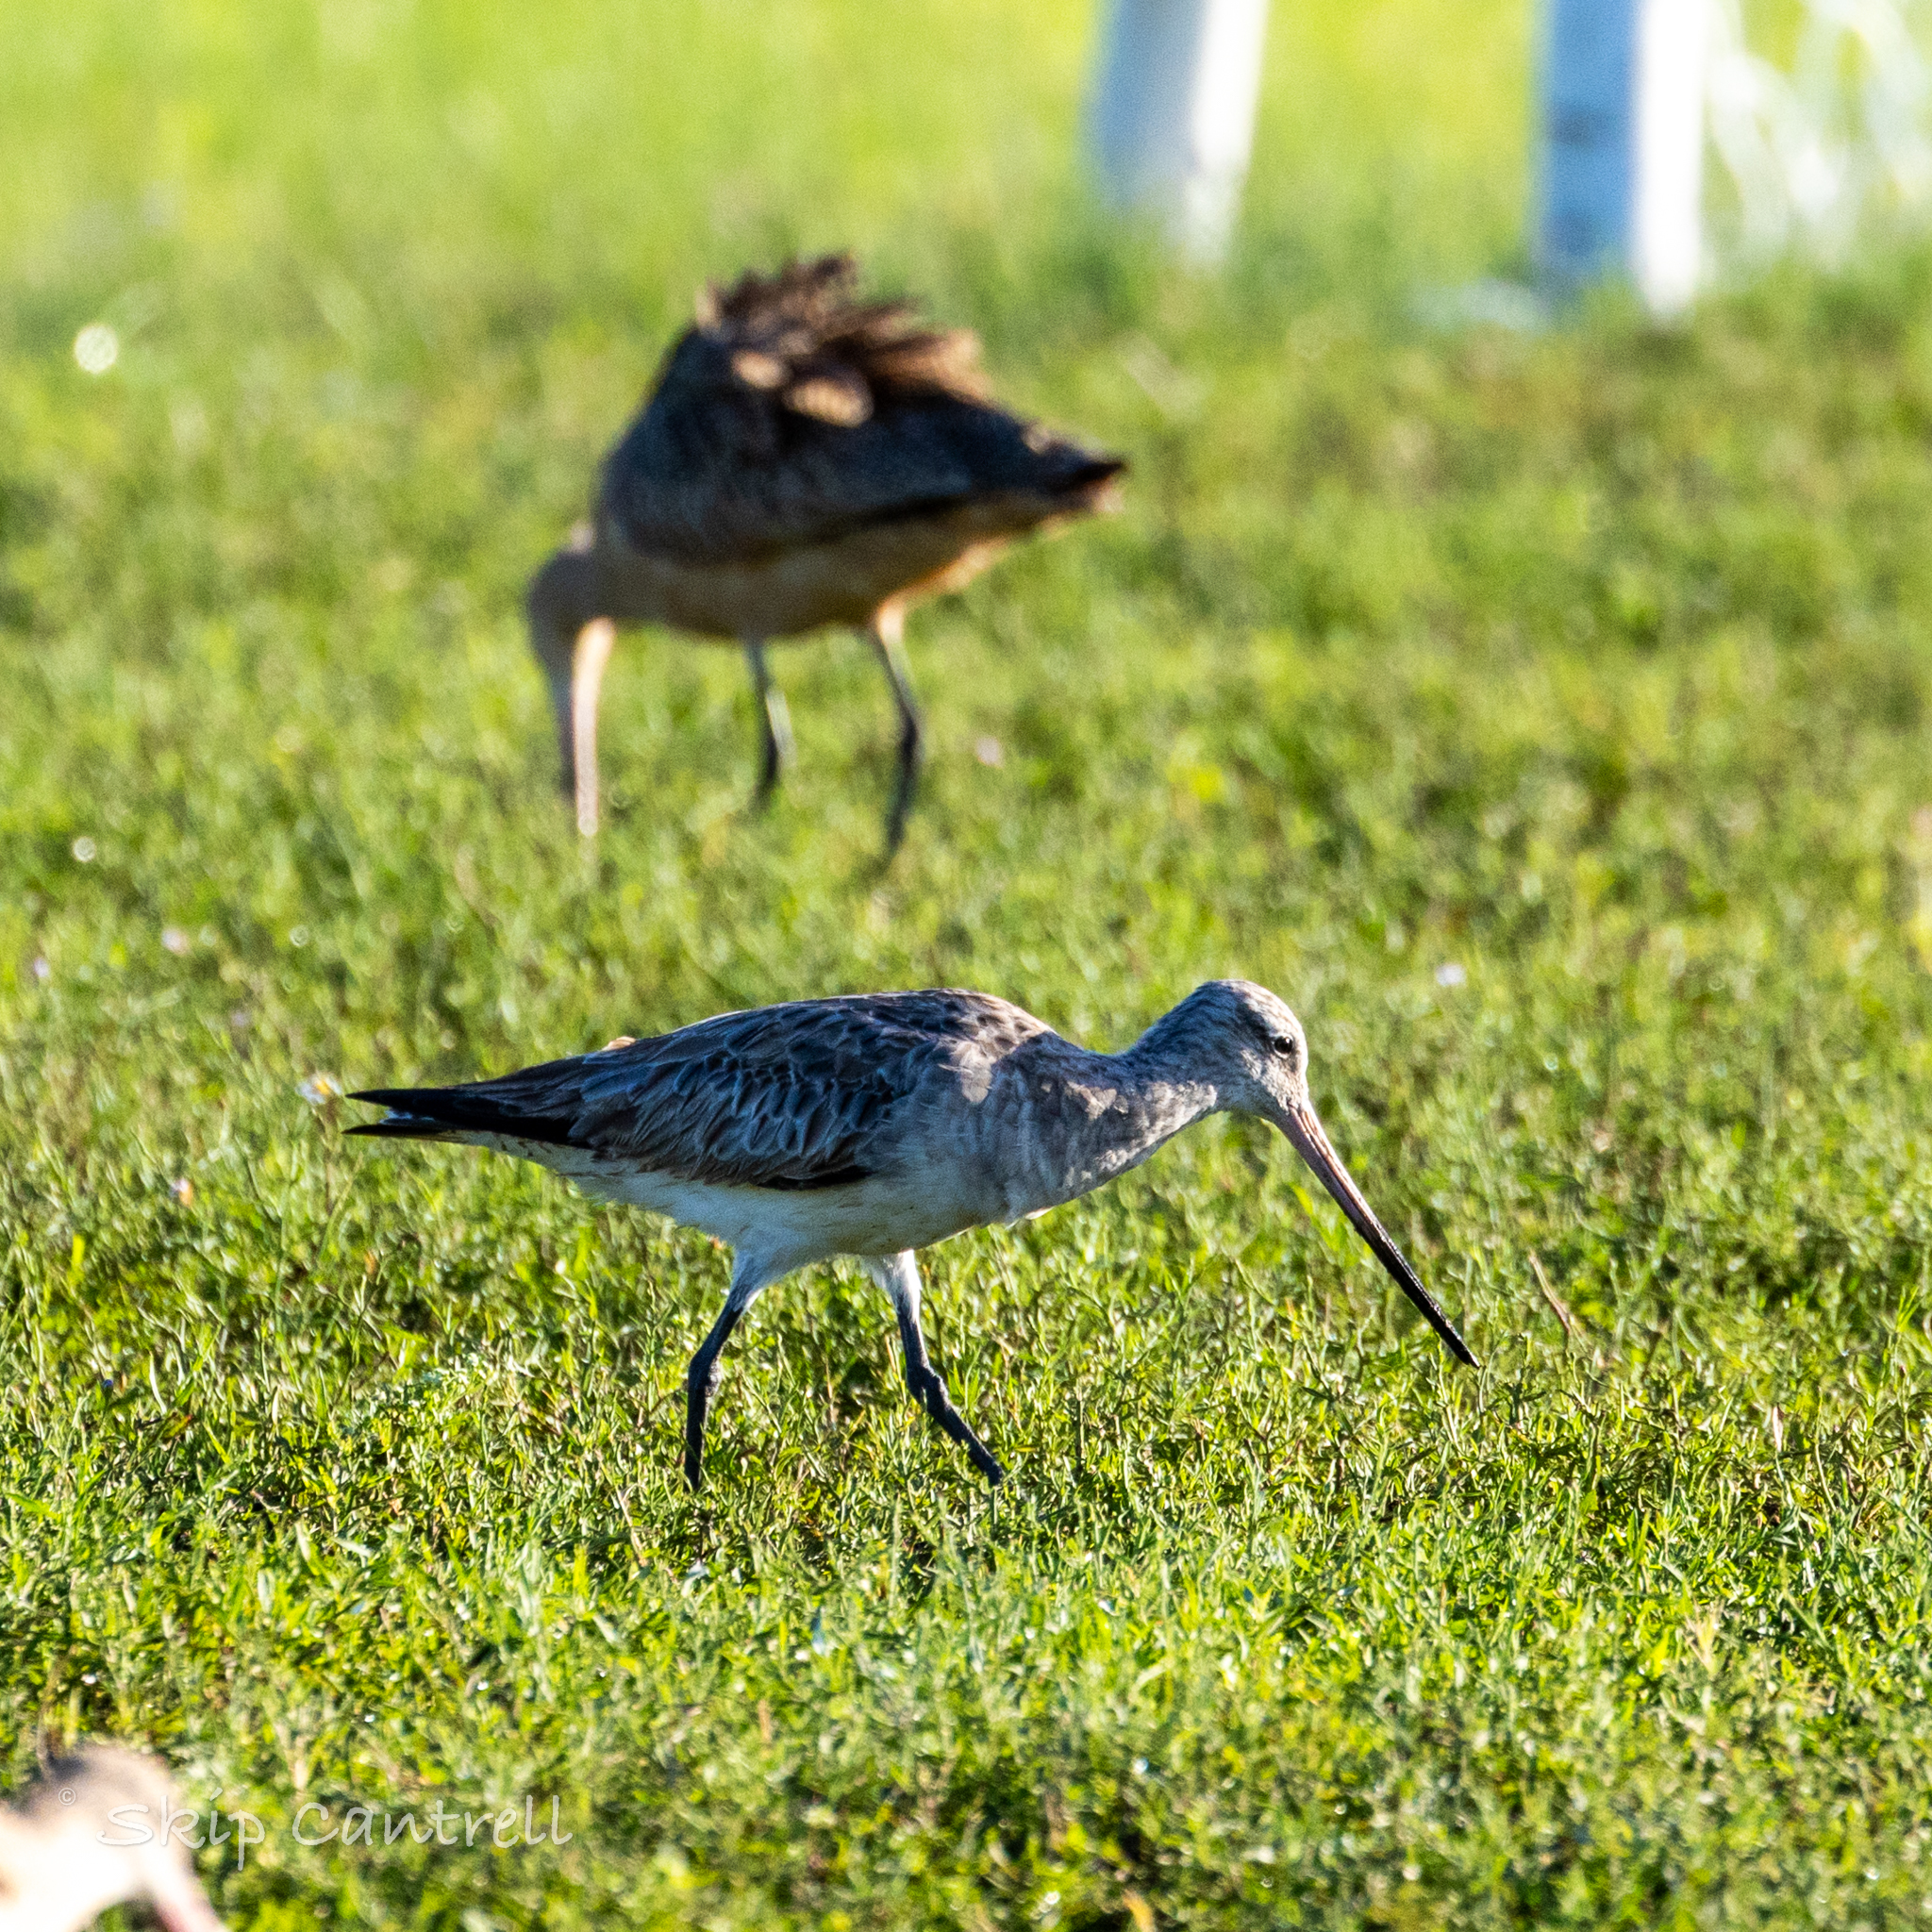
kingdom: Animalia
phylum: Chordata
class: Aves
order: Charadriiformes
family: Scolopacidae
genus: Limosa
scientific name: Limosa lapponica
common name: Bar-tailed godwit
